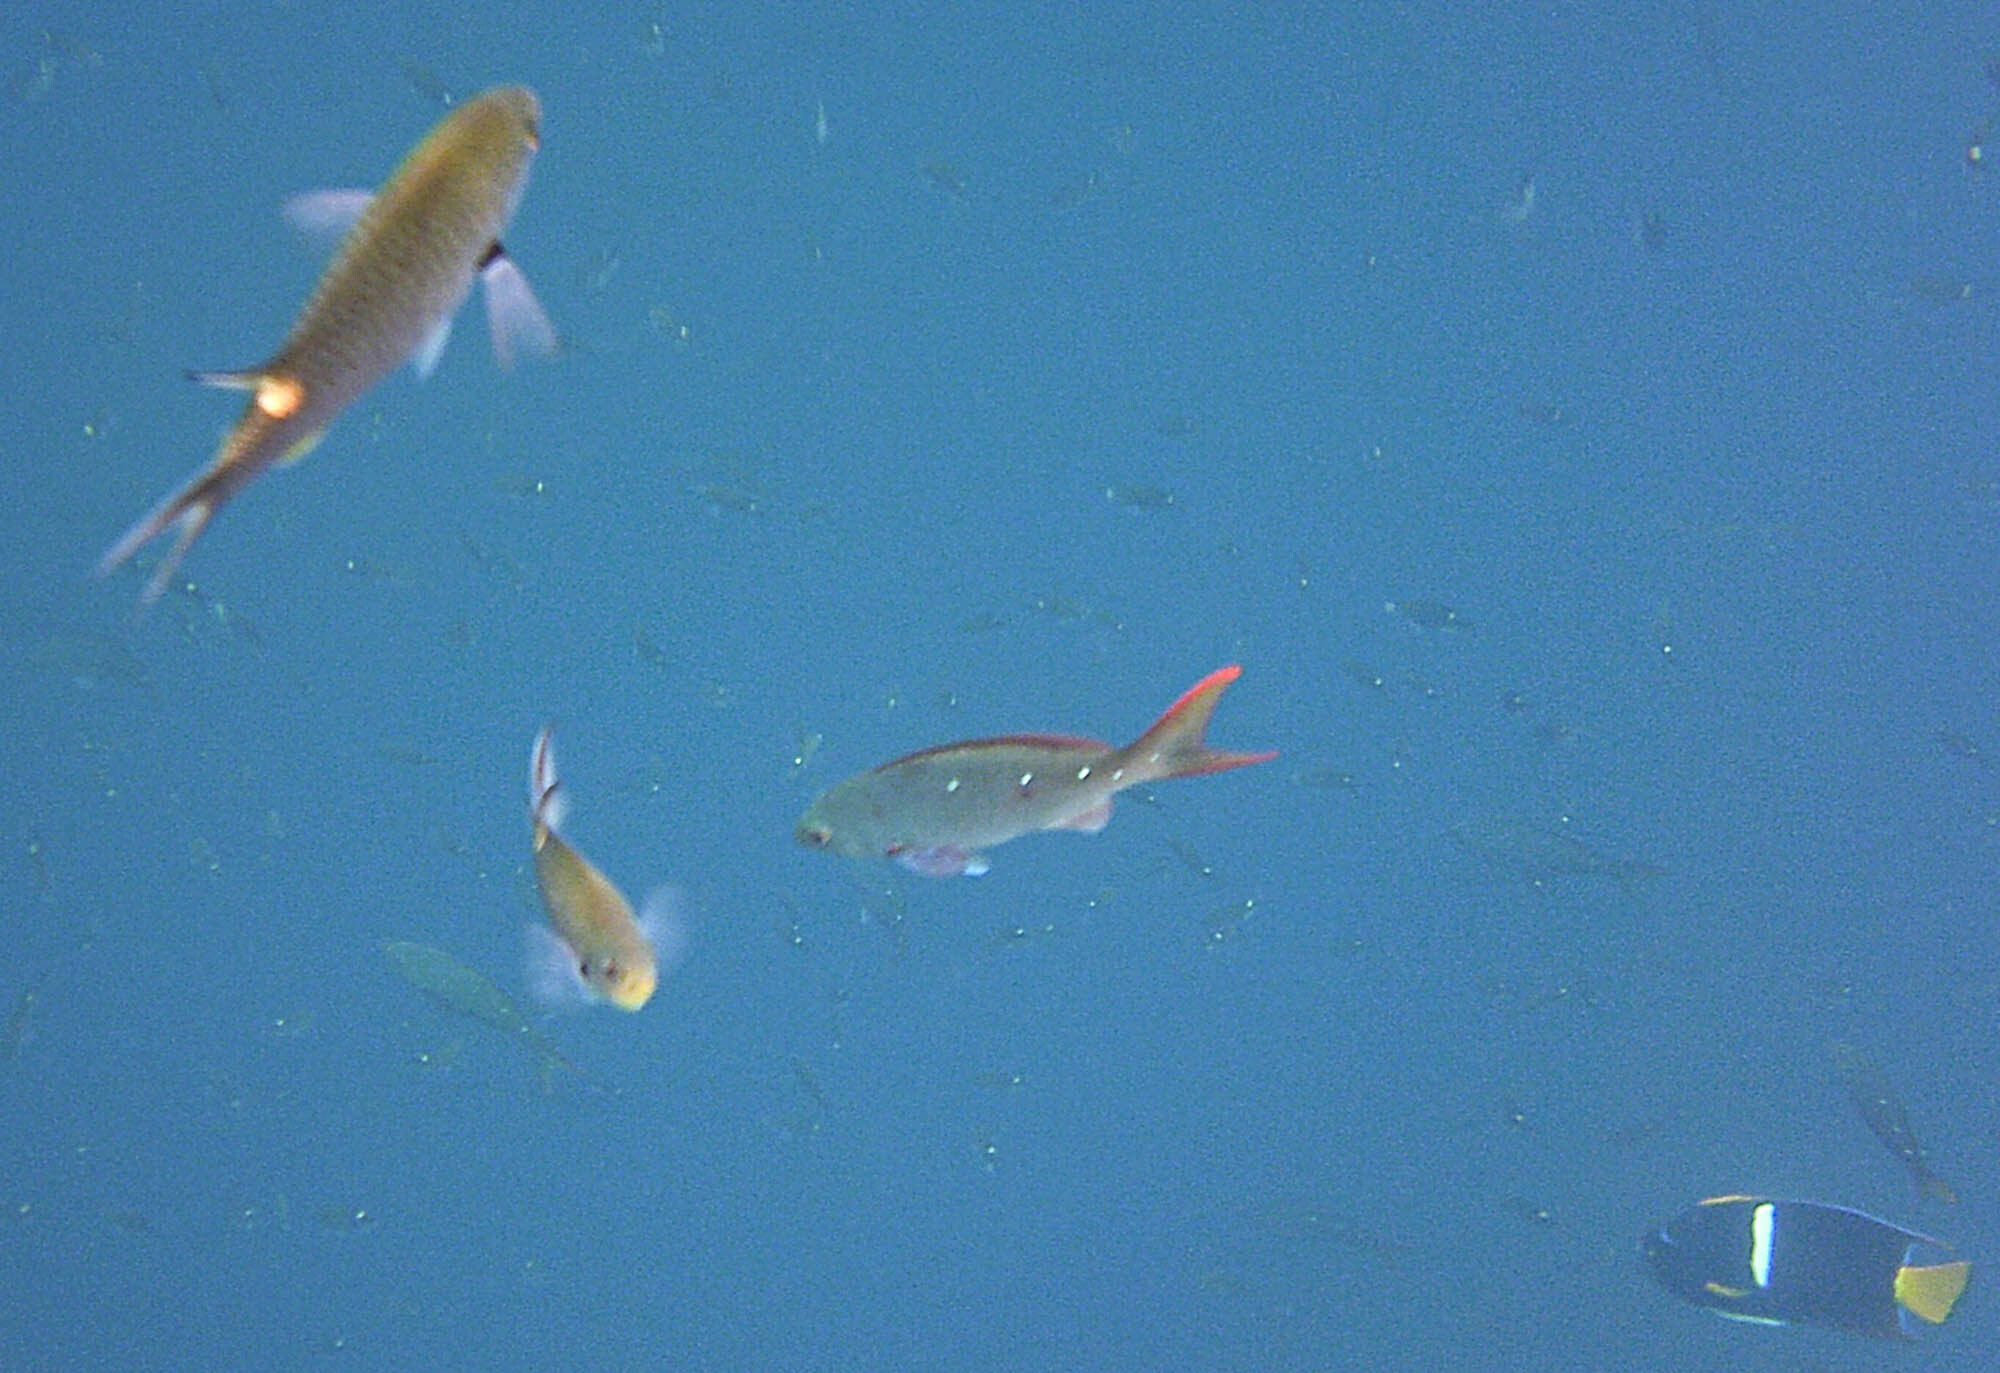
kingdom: Animalia
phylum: Chordata
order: Perciformes
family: Serranidae
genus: Paranthias
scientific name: Paranthias colonus
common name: Pacific creole-fish
